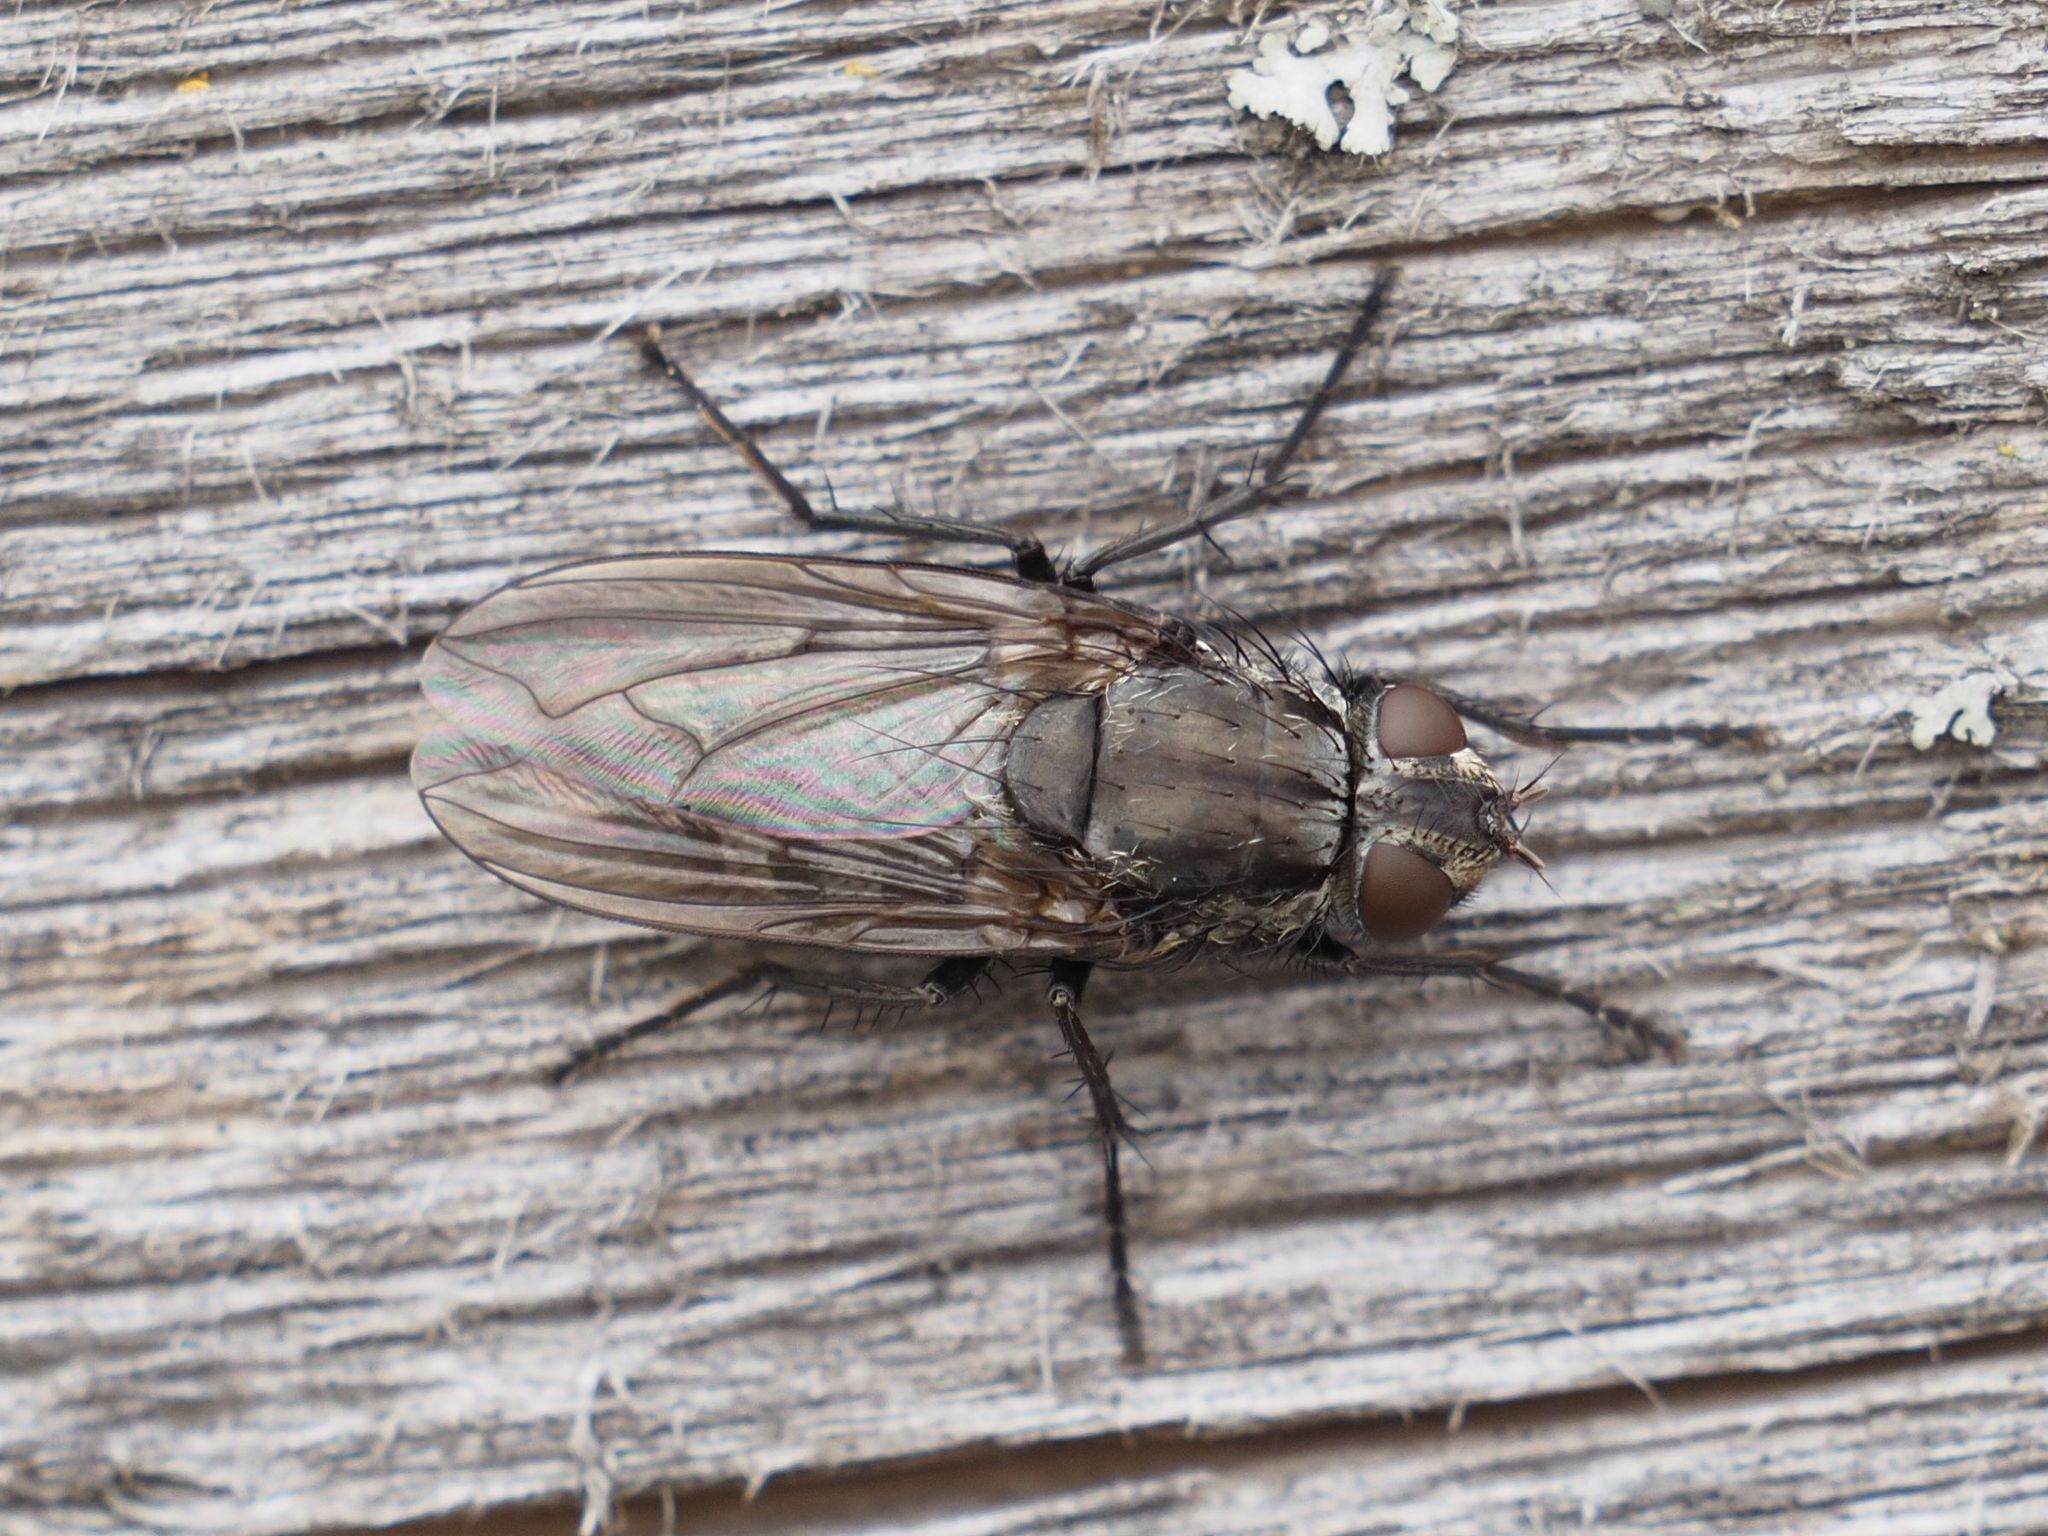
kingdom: Animalia
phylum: Arthropoda
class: Insecta
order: Diptera
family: Polleniidae
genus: Pollenia
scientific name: Pollenia vagabunda
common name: Vagabund cluster fly
